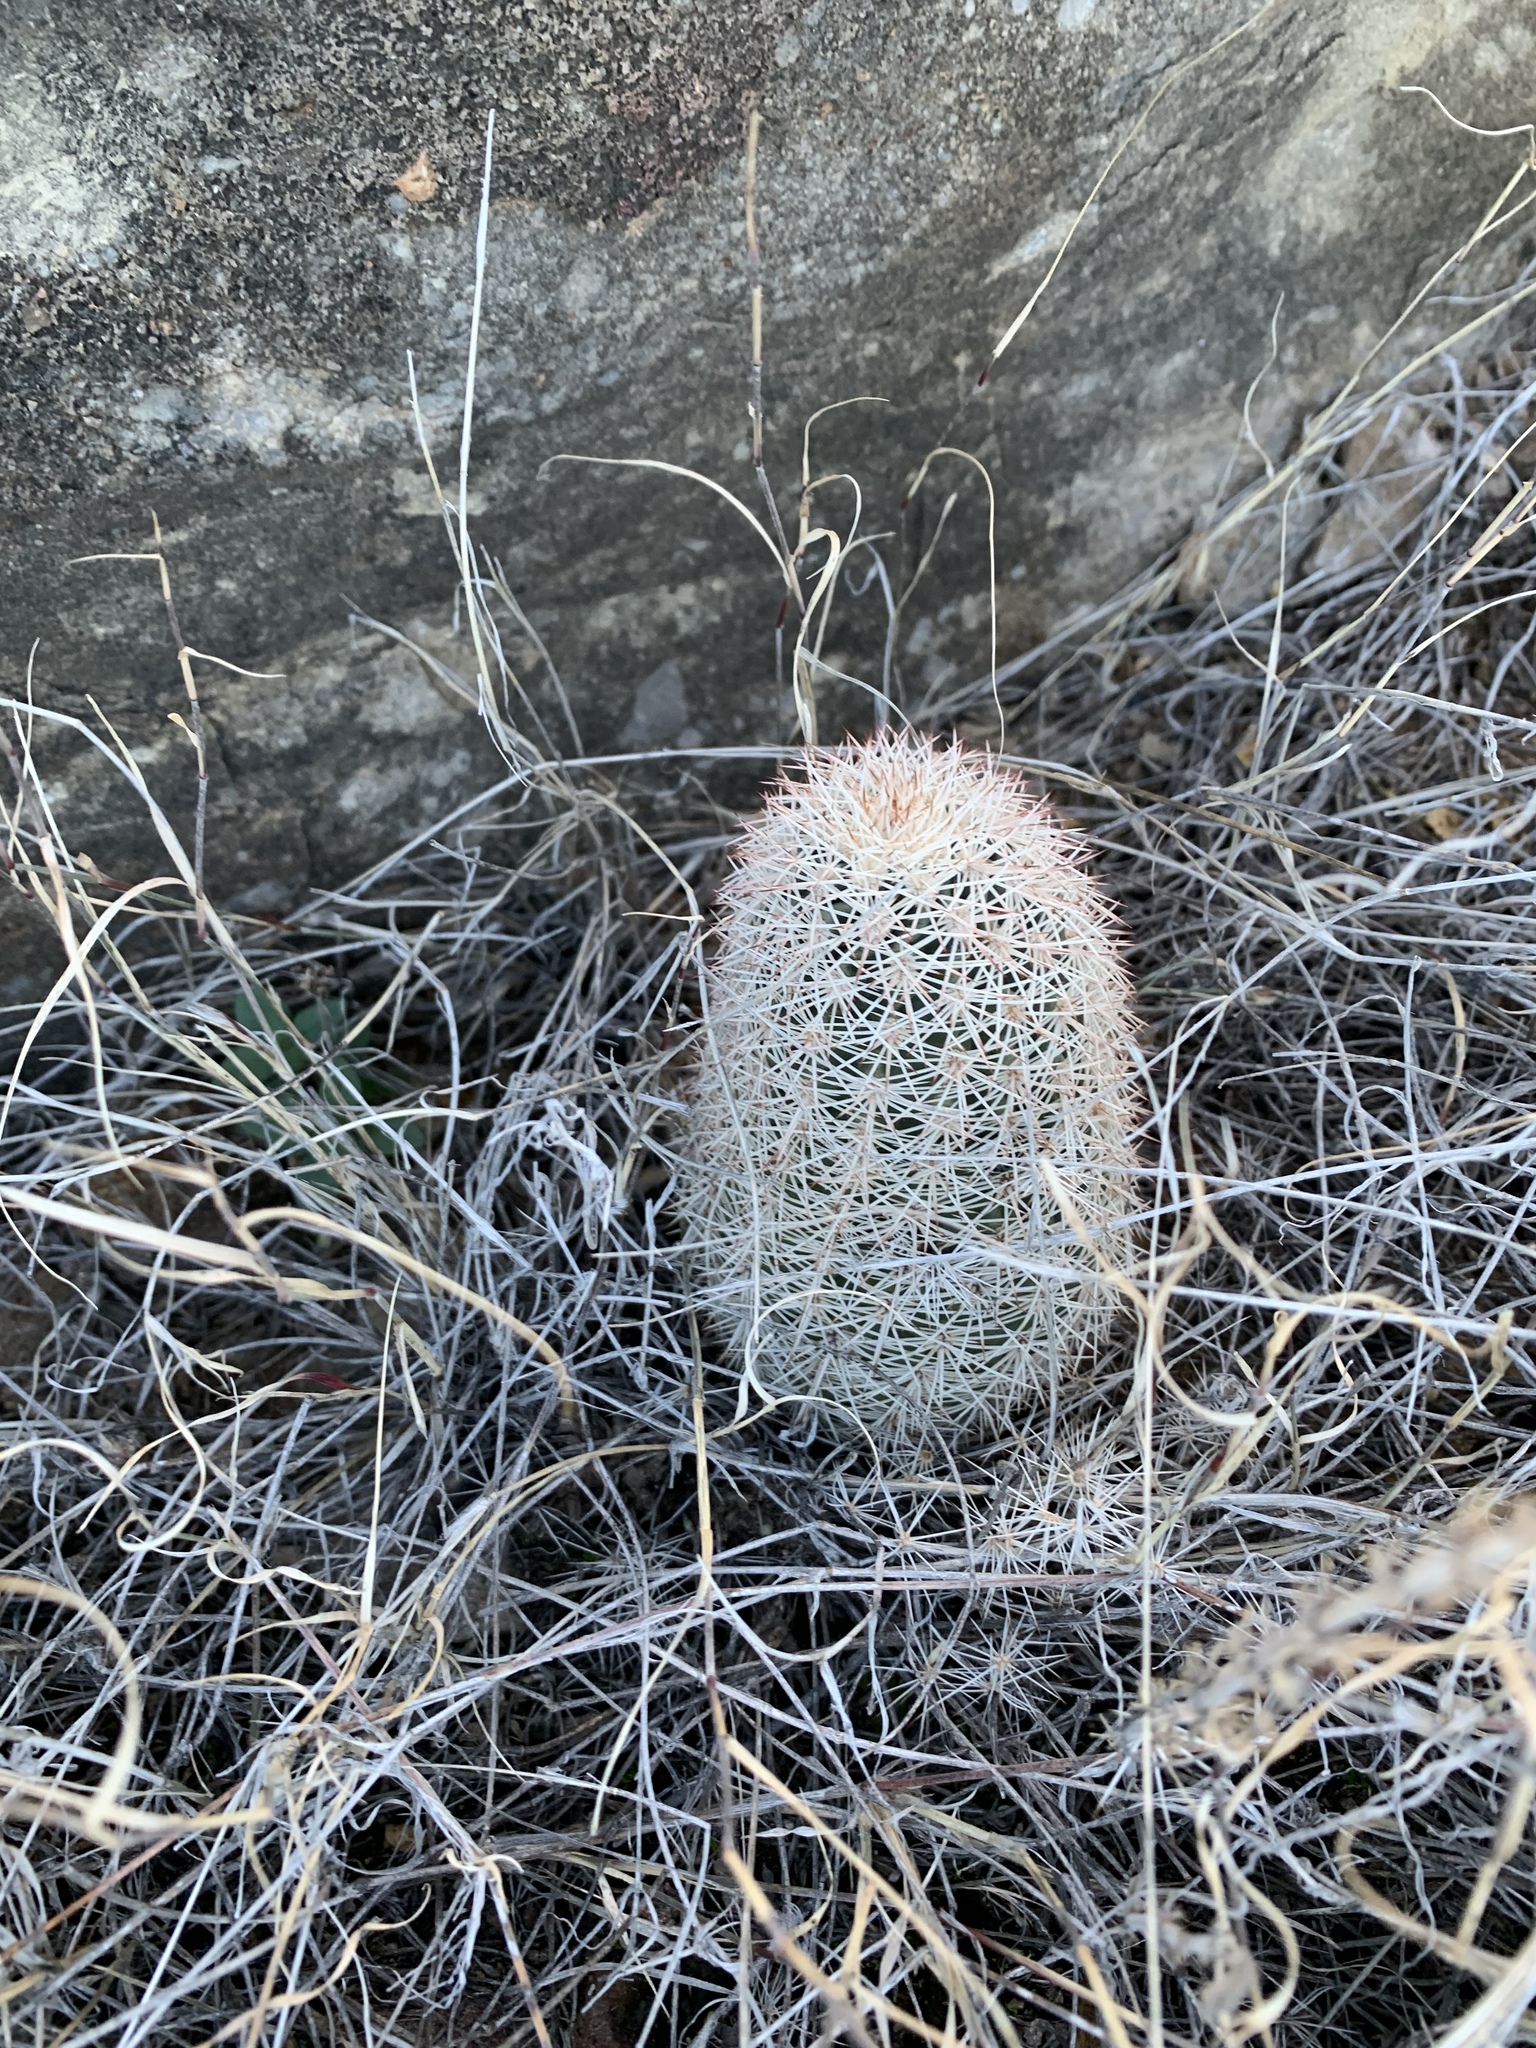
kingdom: Plantae
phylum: Tracheophyta
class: Magnoliopsida
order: Caryophyllales
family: Cactaceae
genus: Echinocereus
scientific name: Echinocereus dasyacanthus
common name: Spiny hedgehog cactus
